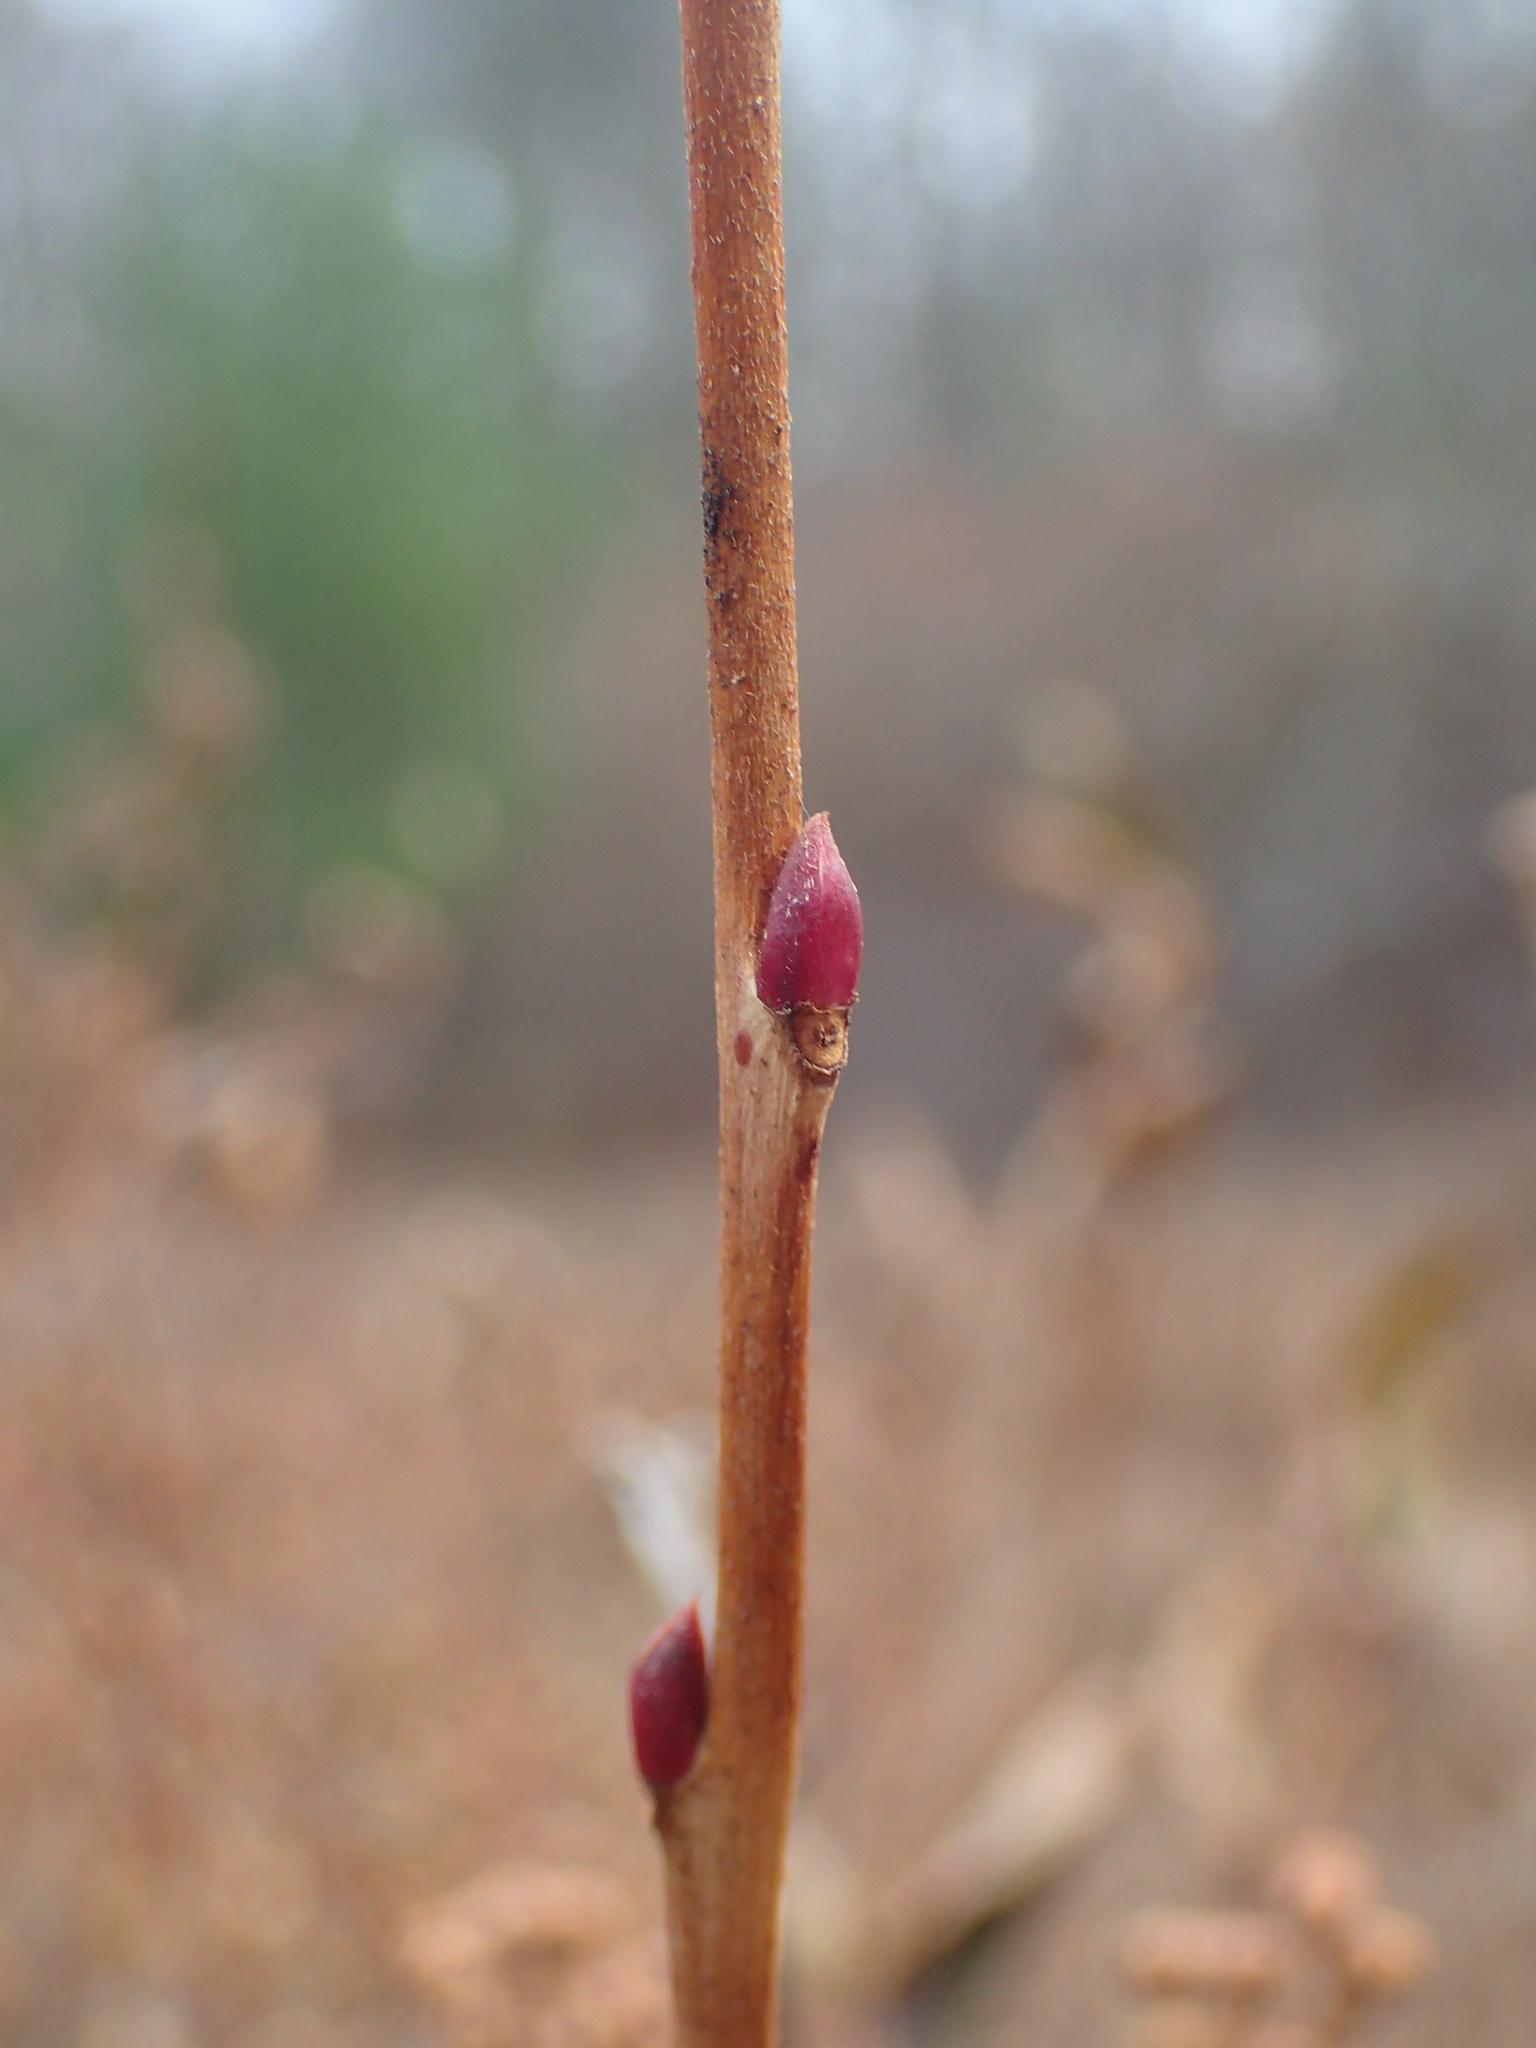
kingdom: Plantae
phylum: Tracheophyta
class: Magnoliopsida
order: Ericales
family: Ericaceae
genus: Lyonia
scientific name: Lyonia ligustrina
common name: Maleberry
